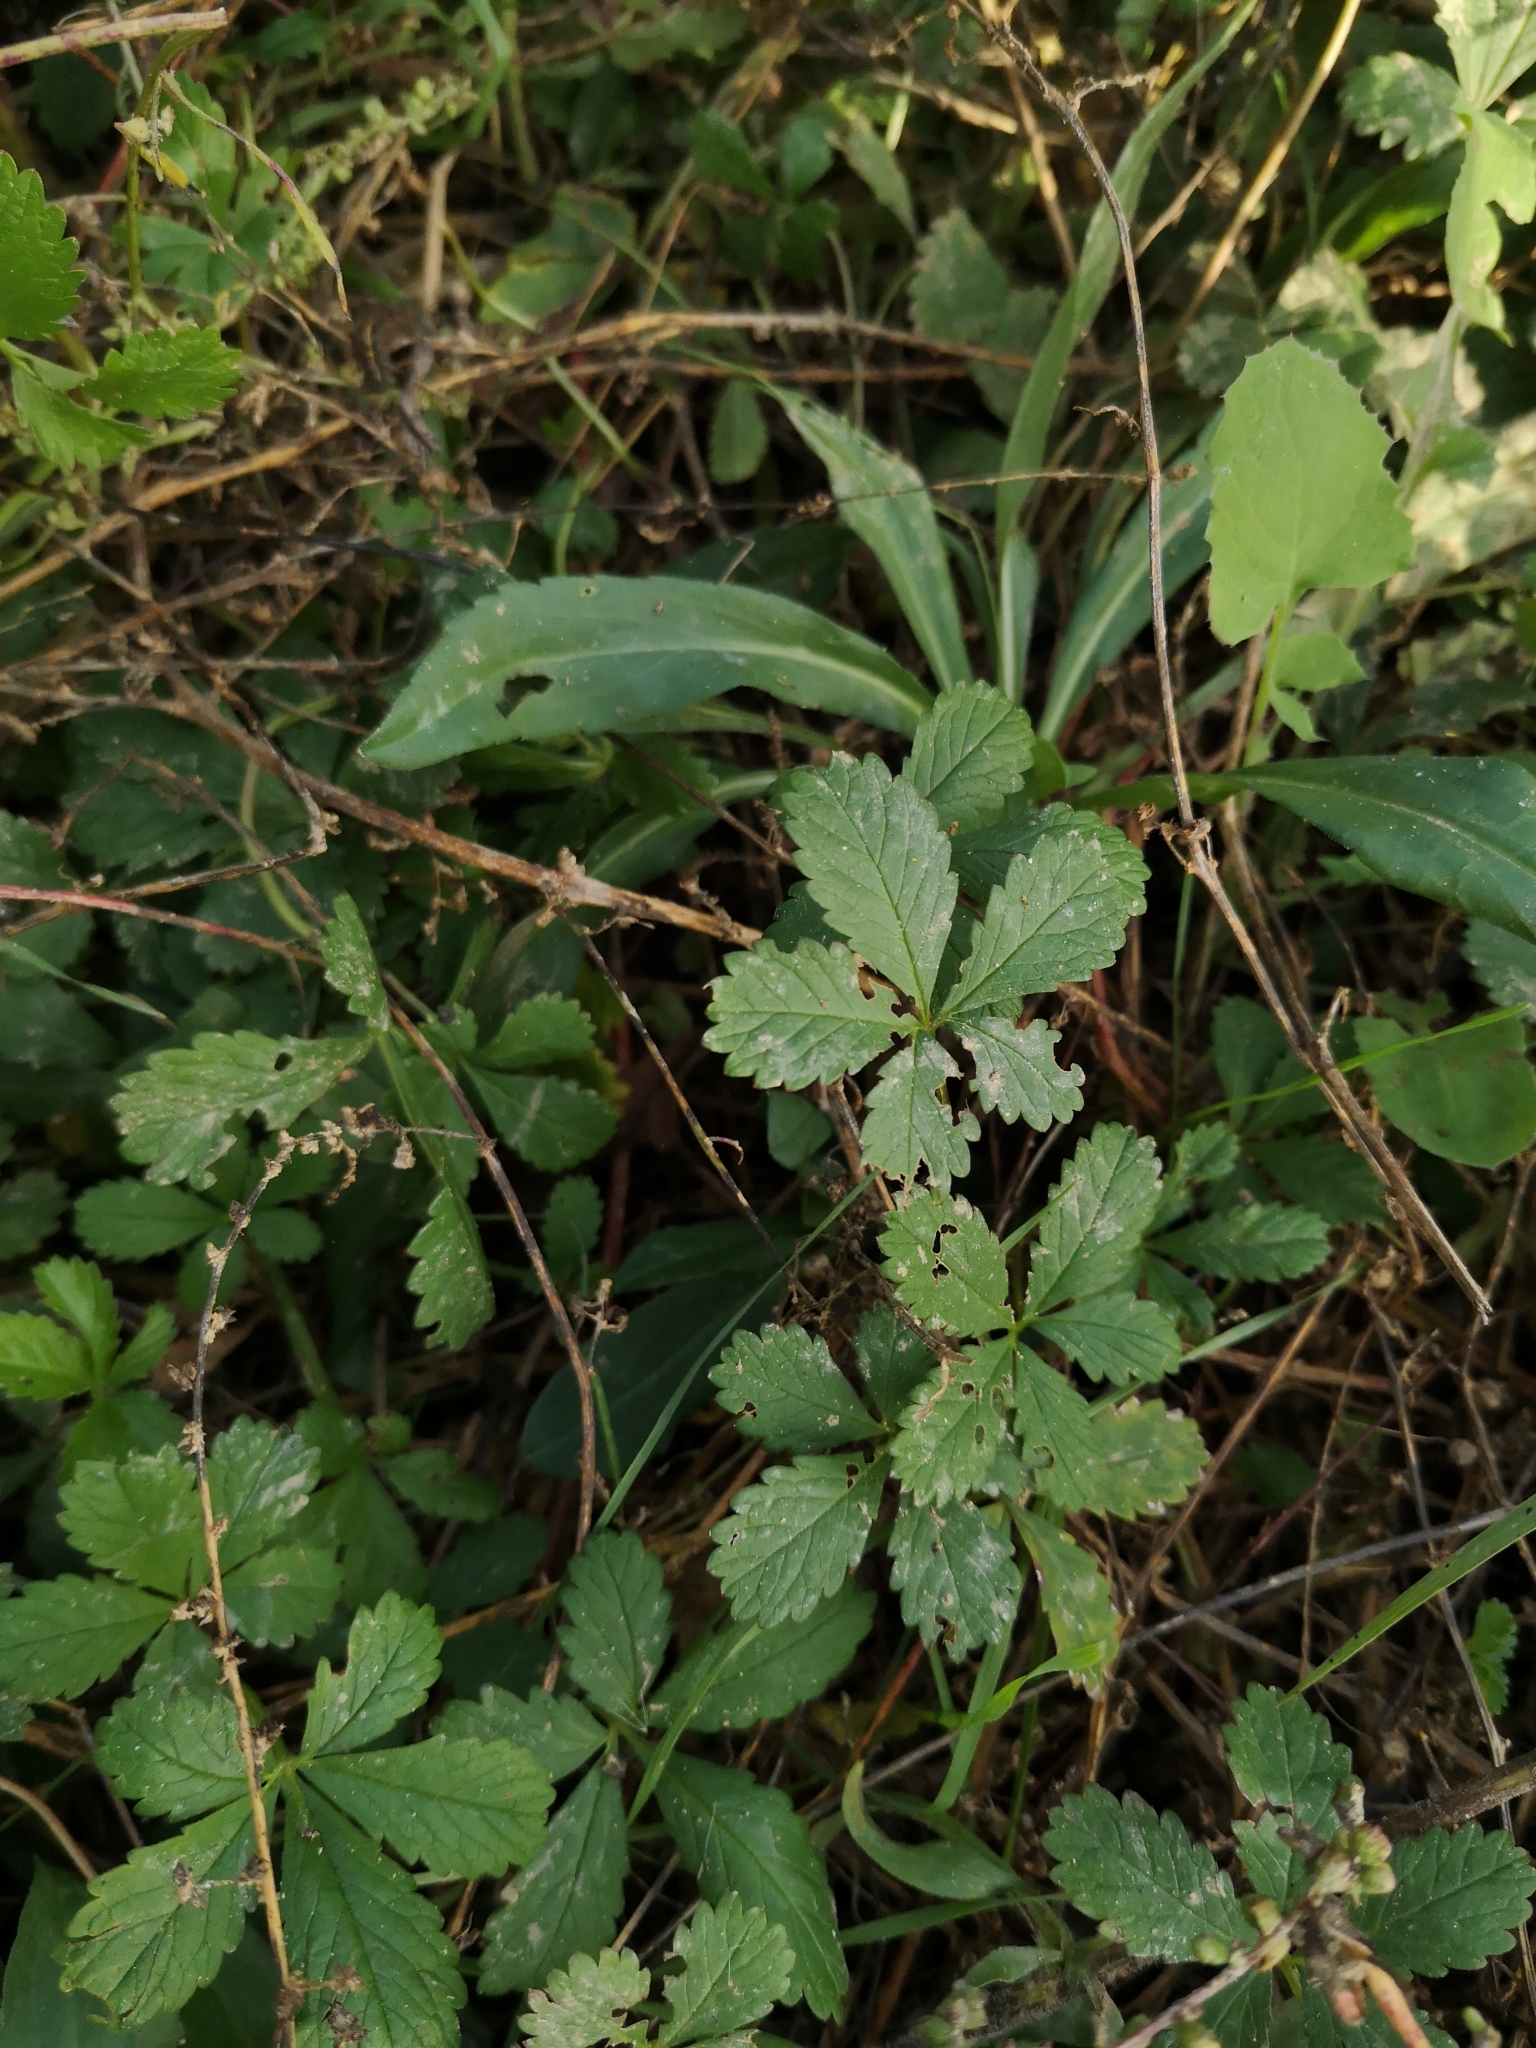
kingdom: Plantae
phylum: Tracheophyta
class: Magnoliopsida
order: Rosales
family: Rosaceae
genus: Potentilla
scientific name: Potentilla reptans
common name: Creeping cinquefoil
